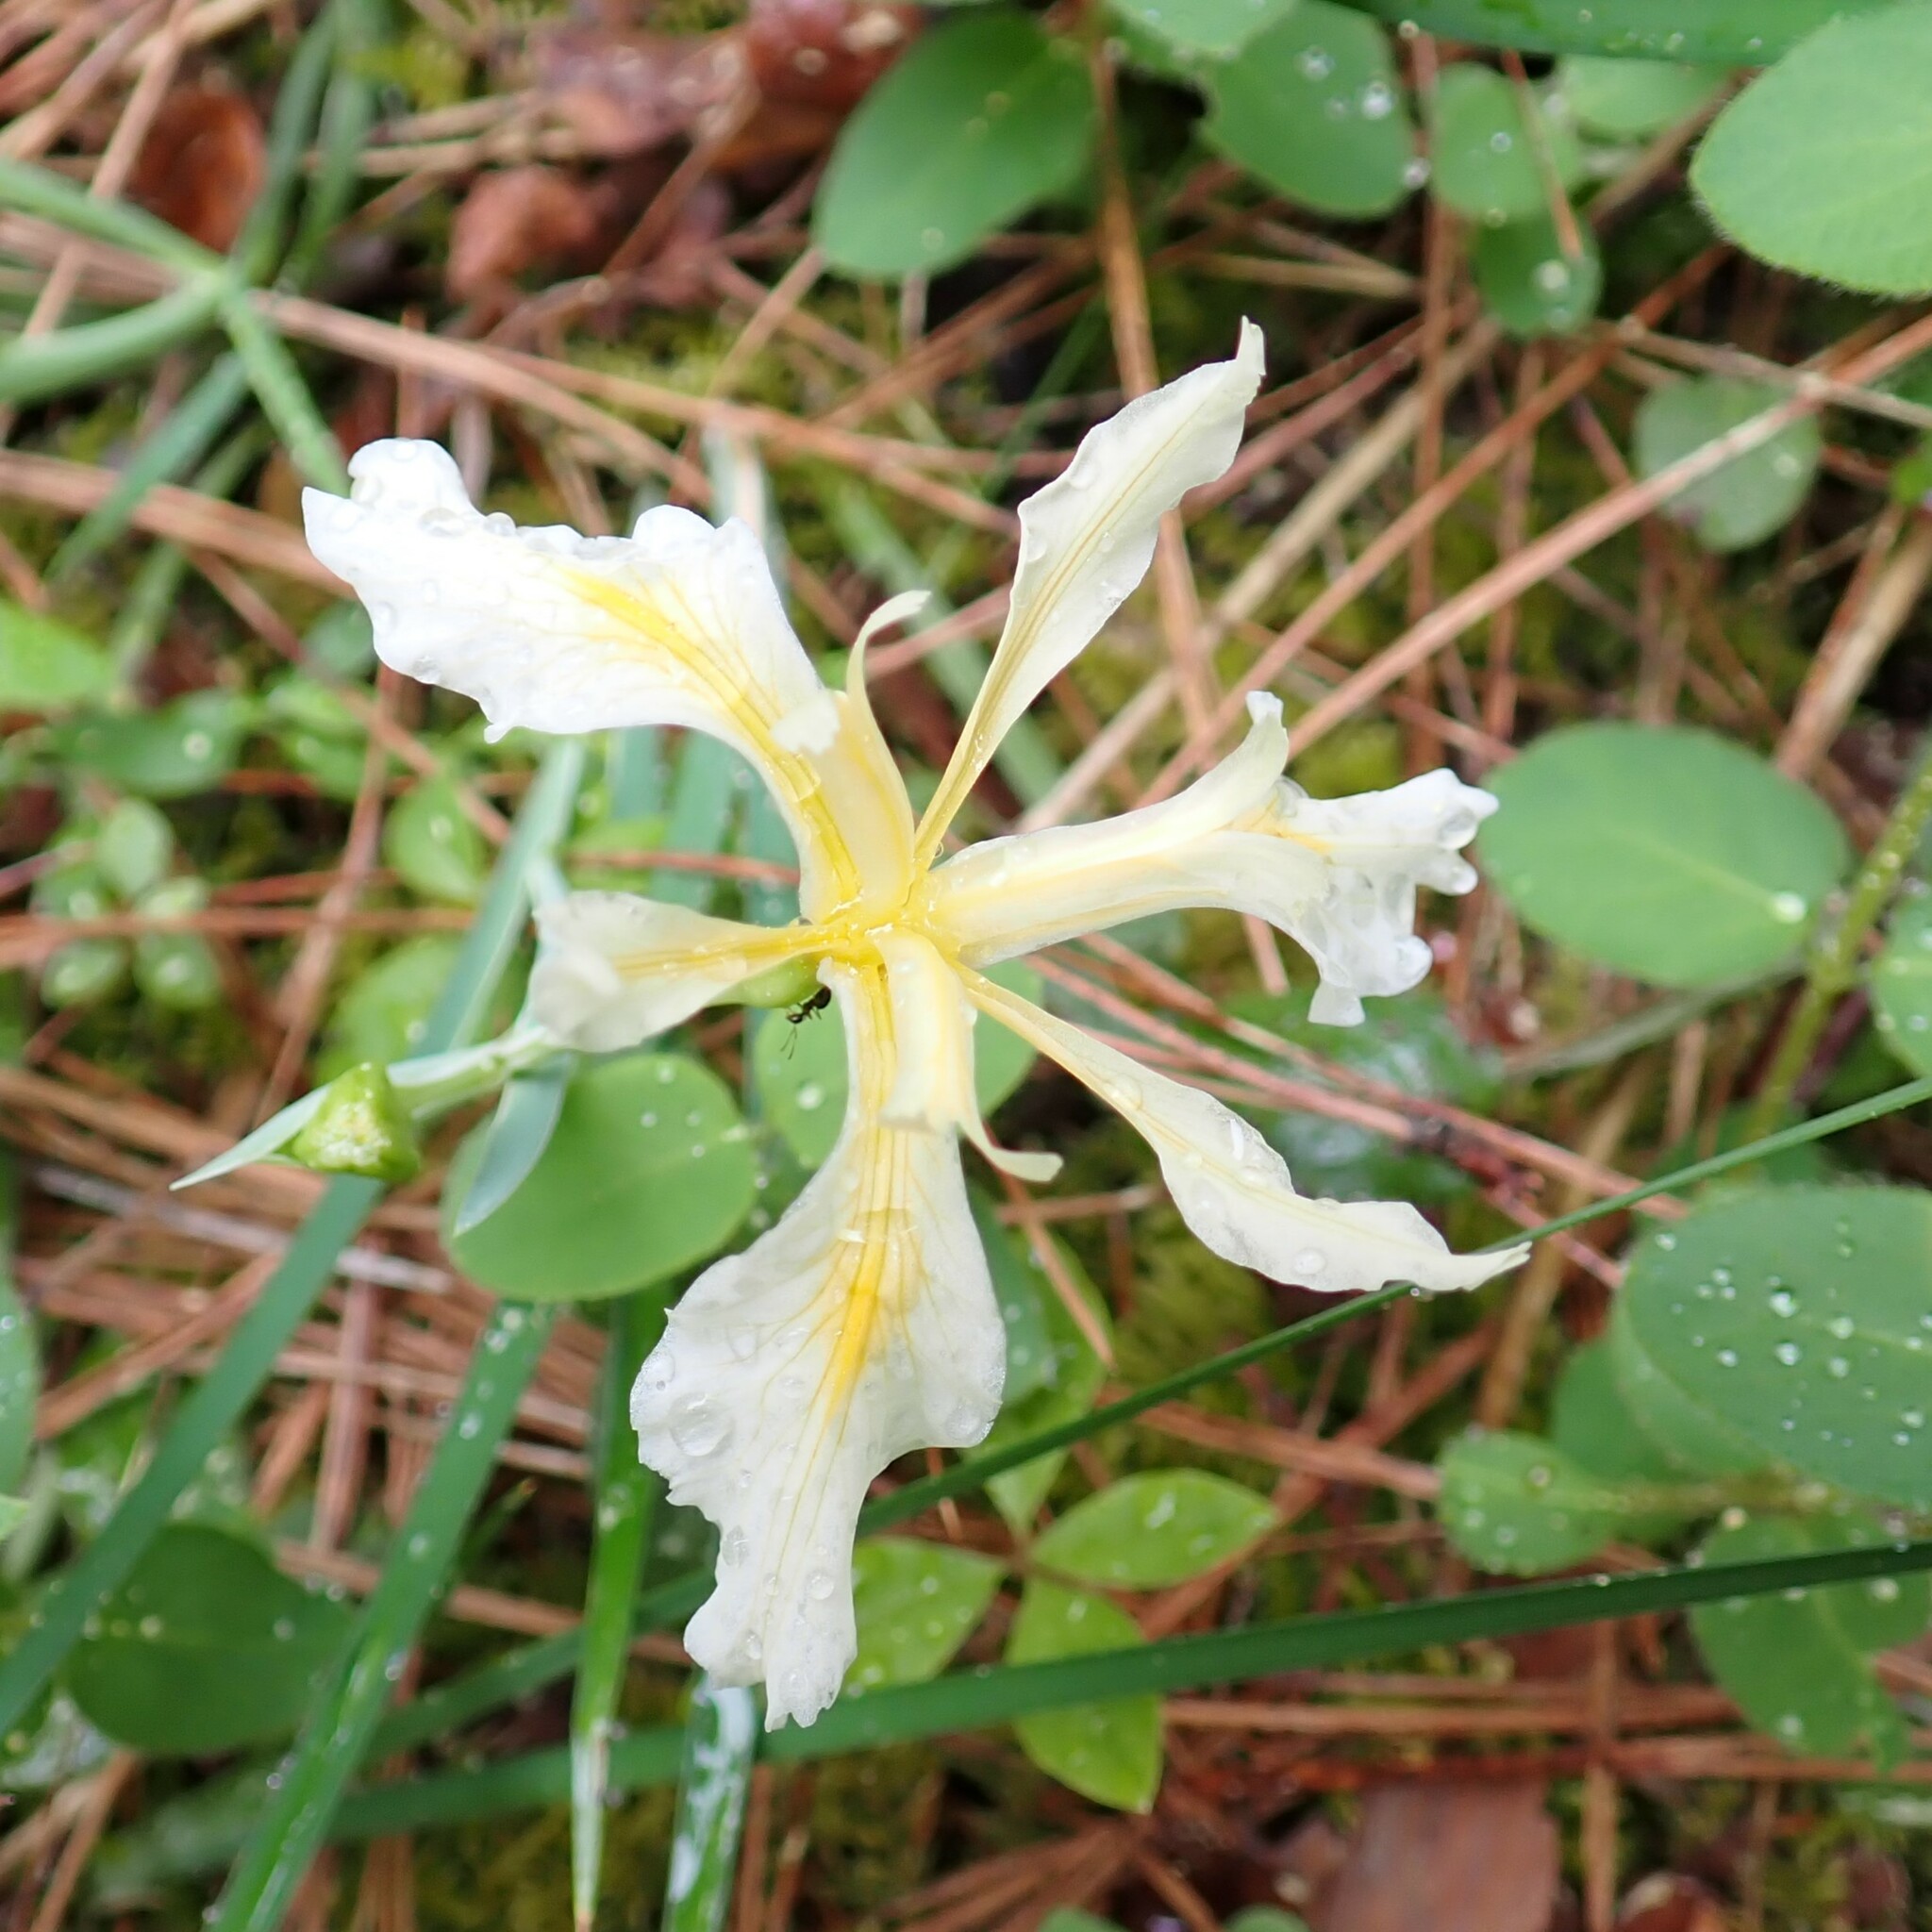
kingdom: Plantae
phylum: Tracheophyta
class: Liliopsida
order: Asparagales
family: Iridaceae
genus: Iris
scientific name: Iris hartwegii
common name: Sierra iris
